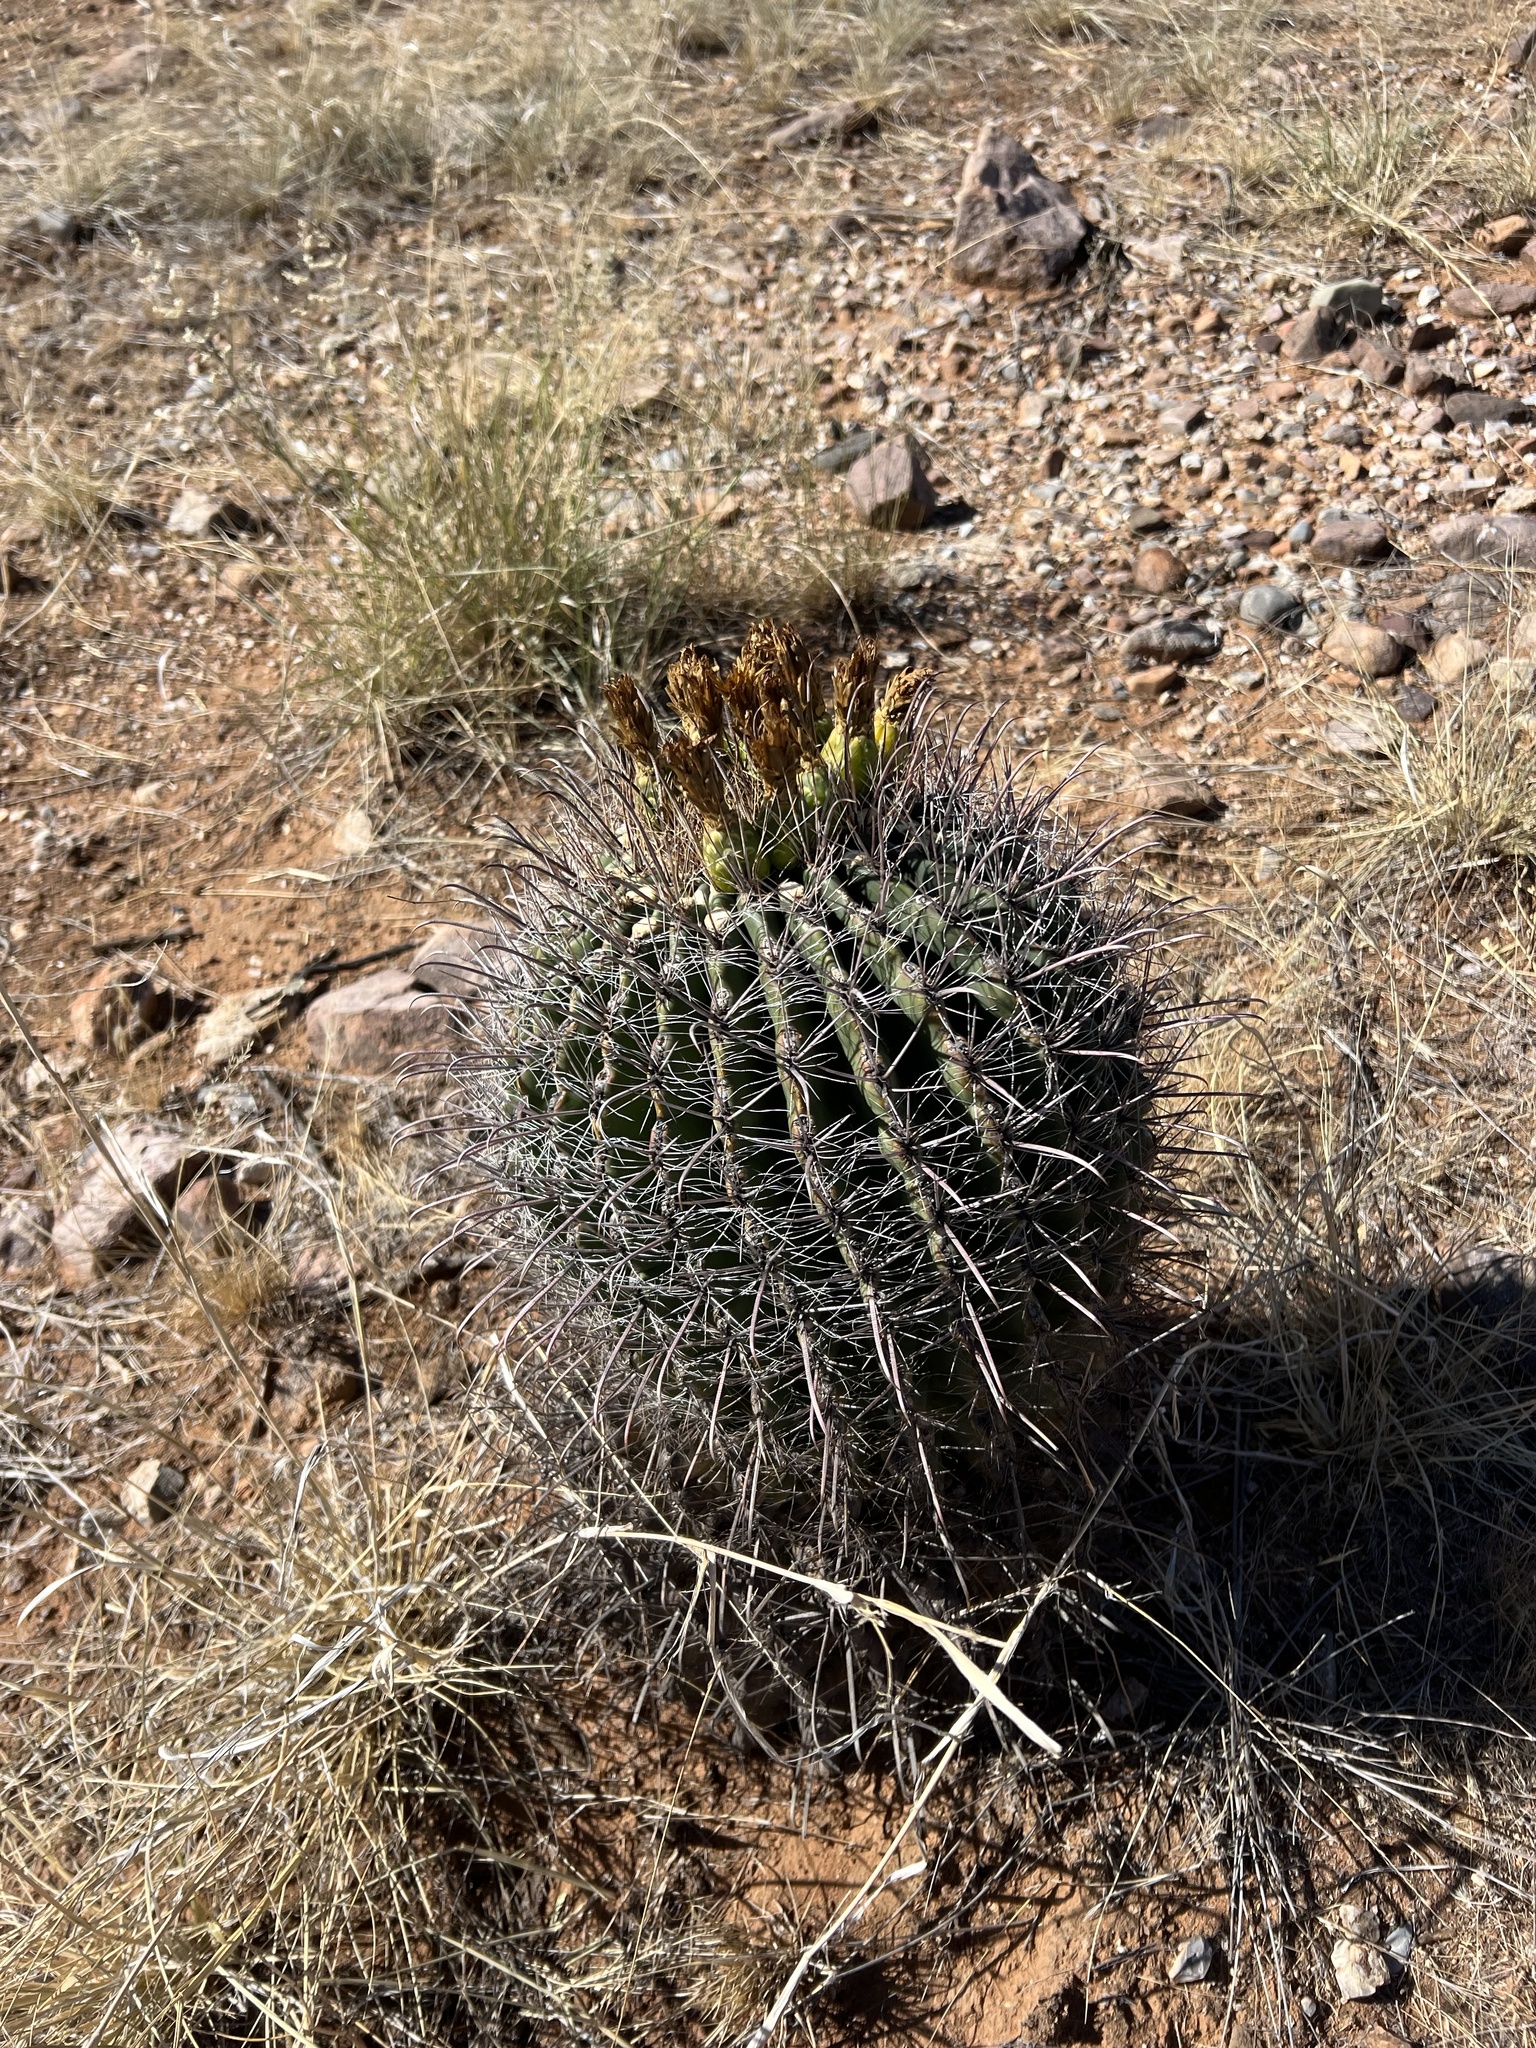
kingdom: Plantae
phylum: Tracheophyta
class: Magnoliopsida
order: Caryophyllales
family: Cactaceae
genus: Ferocactus
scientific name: Ferocactus wislizeni
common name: Candy barrel cactus
